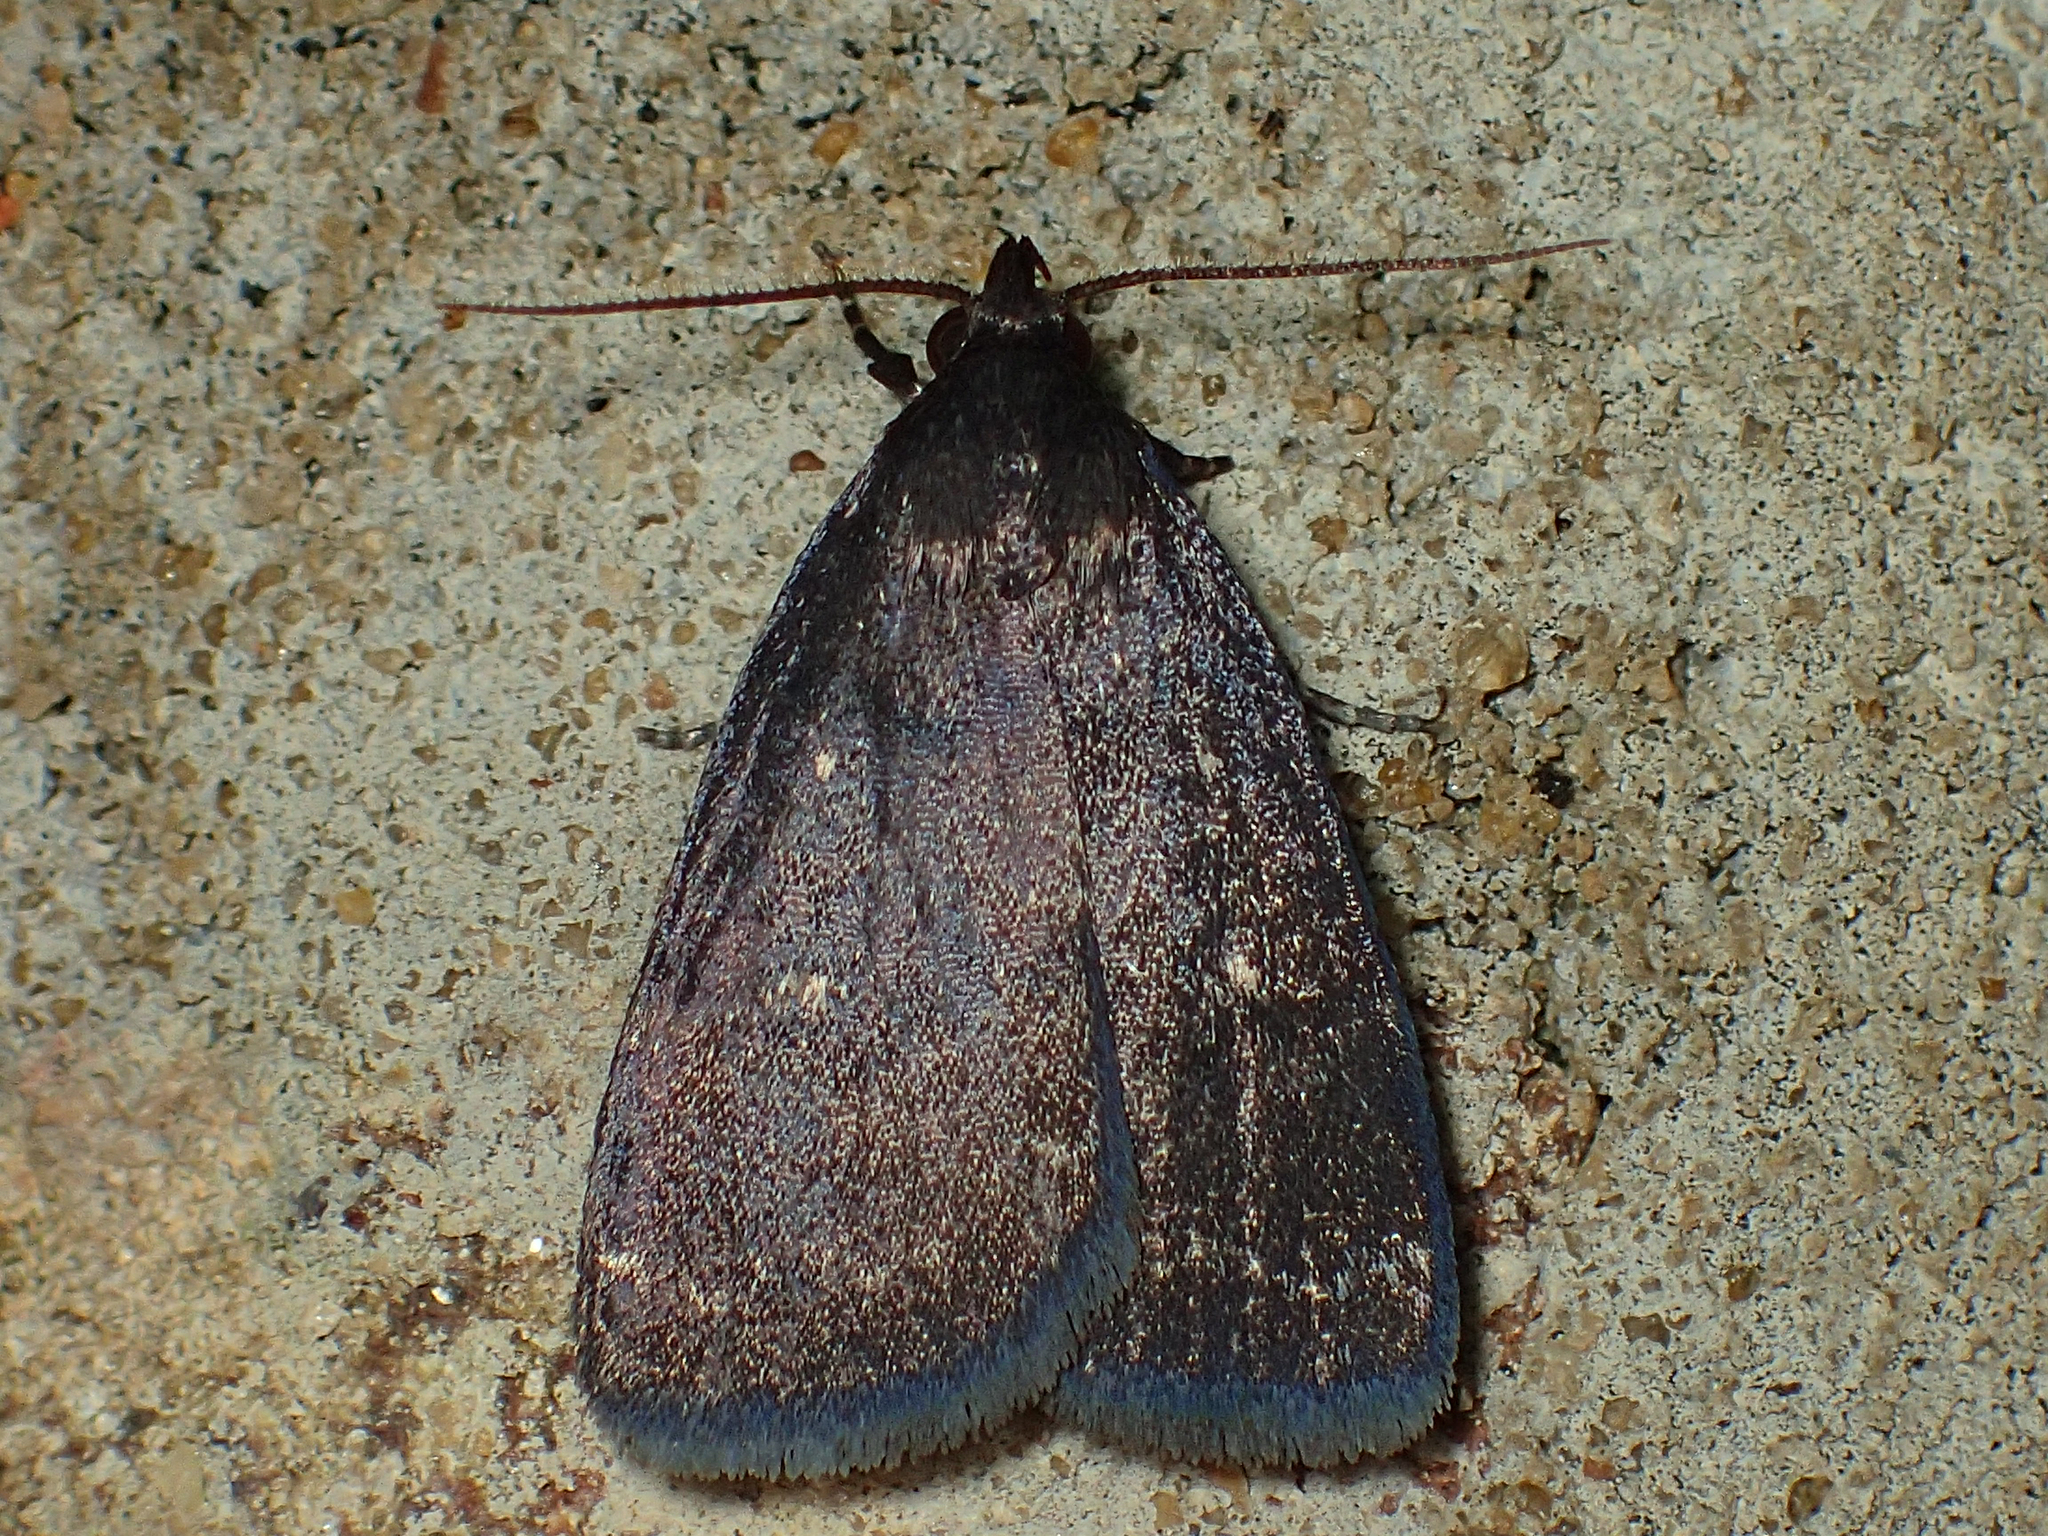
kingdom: Animalia
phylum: Arthropoda
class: Insecta
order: Lepidoptera
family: Erebidae
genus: Idia
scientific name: Idia rotundalis
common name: Rotund idia moth
